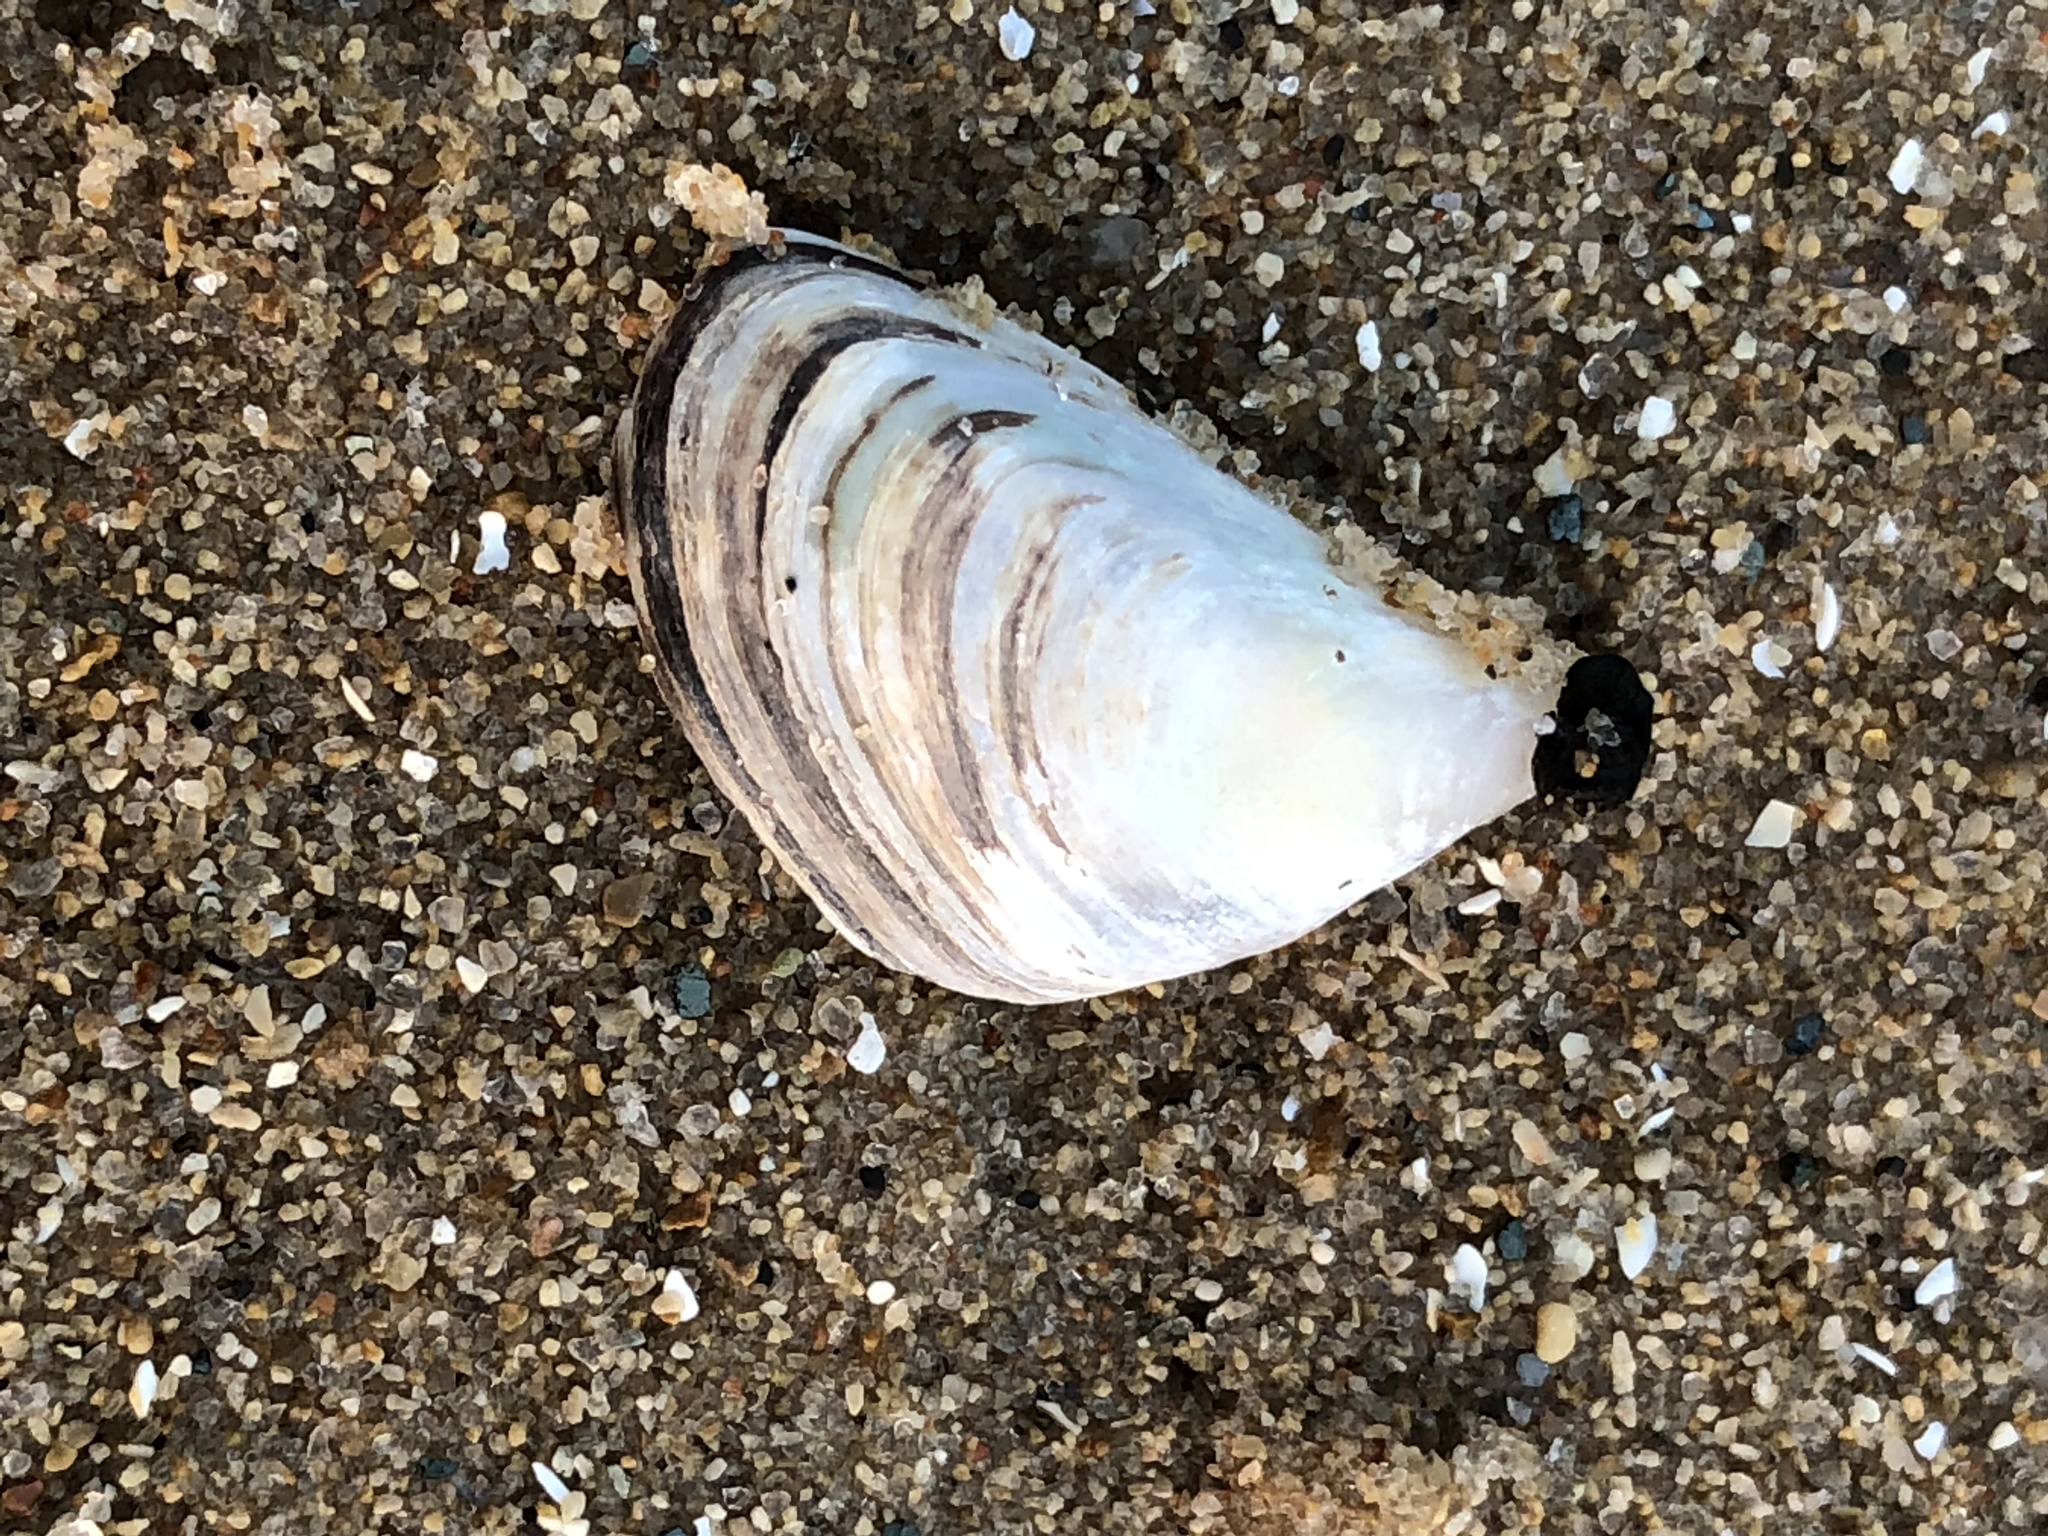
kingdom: Animalia
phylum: Mollusca
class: Bivalvia
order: Myida
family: Dreissenidae
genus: Dreissena
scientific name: Dreissena bugensis
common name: Quagga mussel
